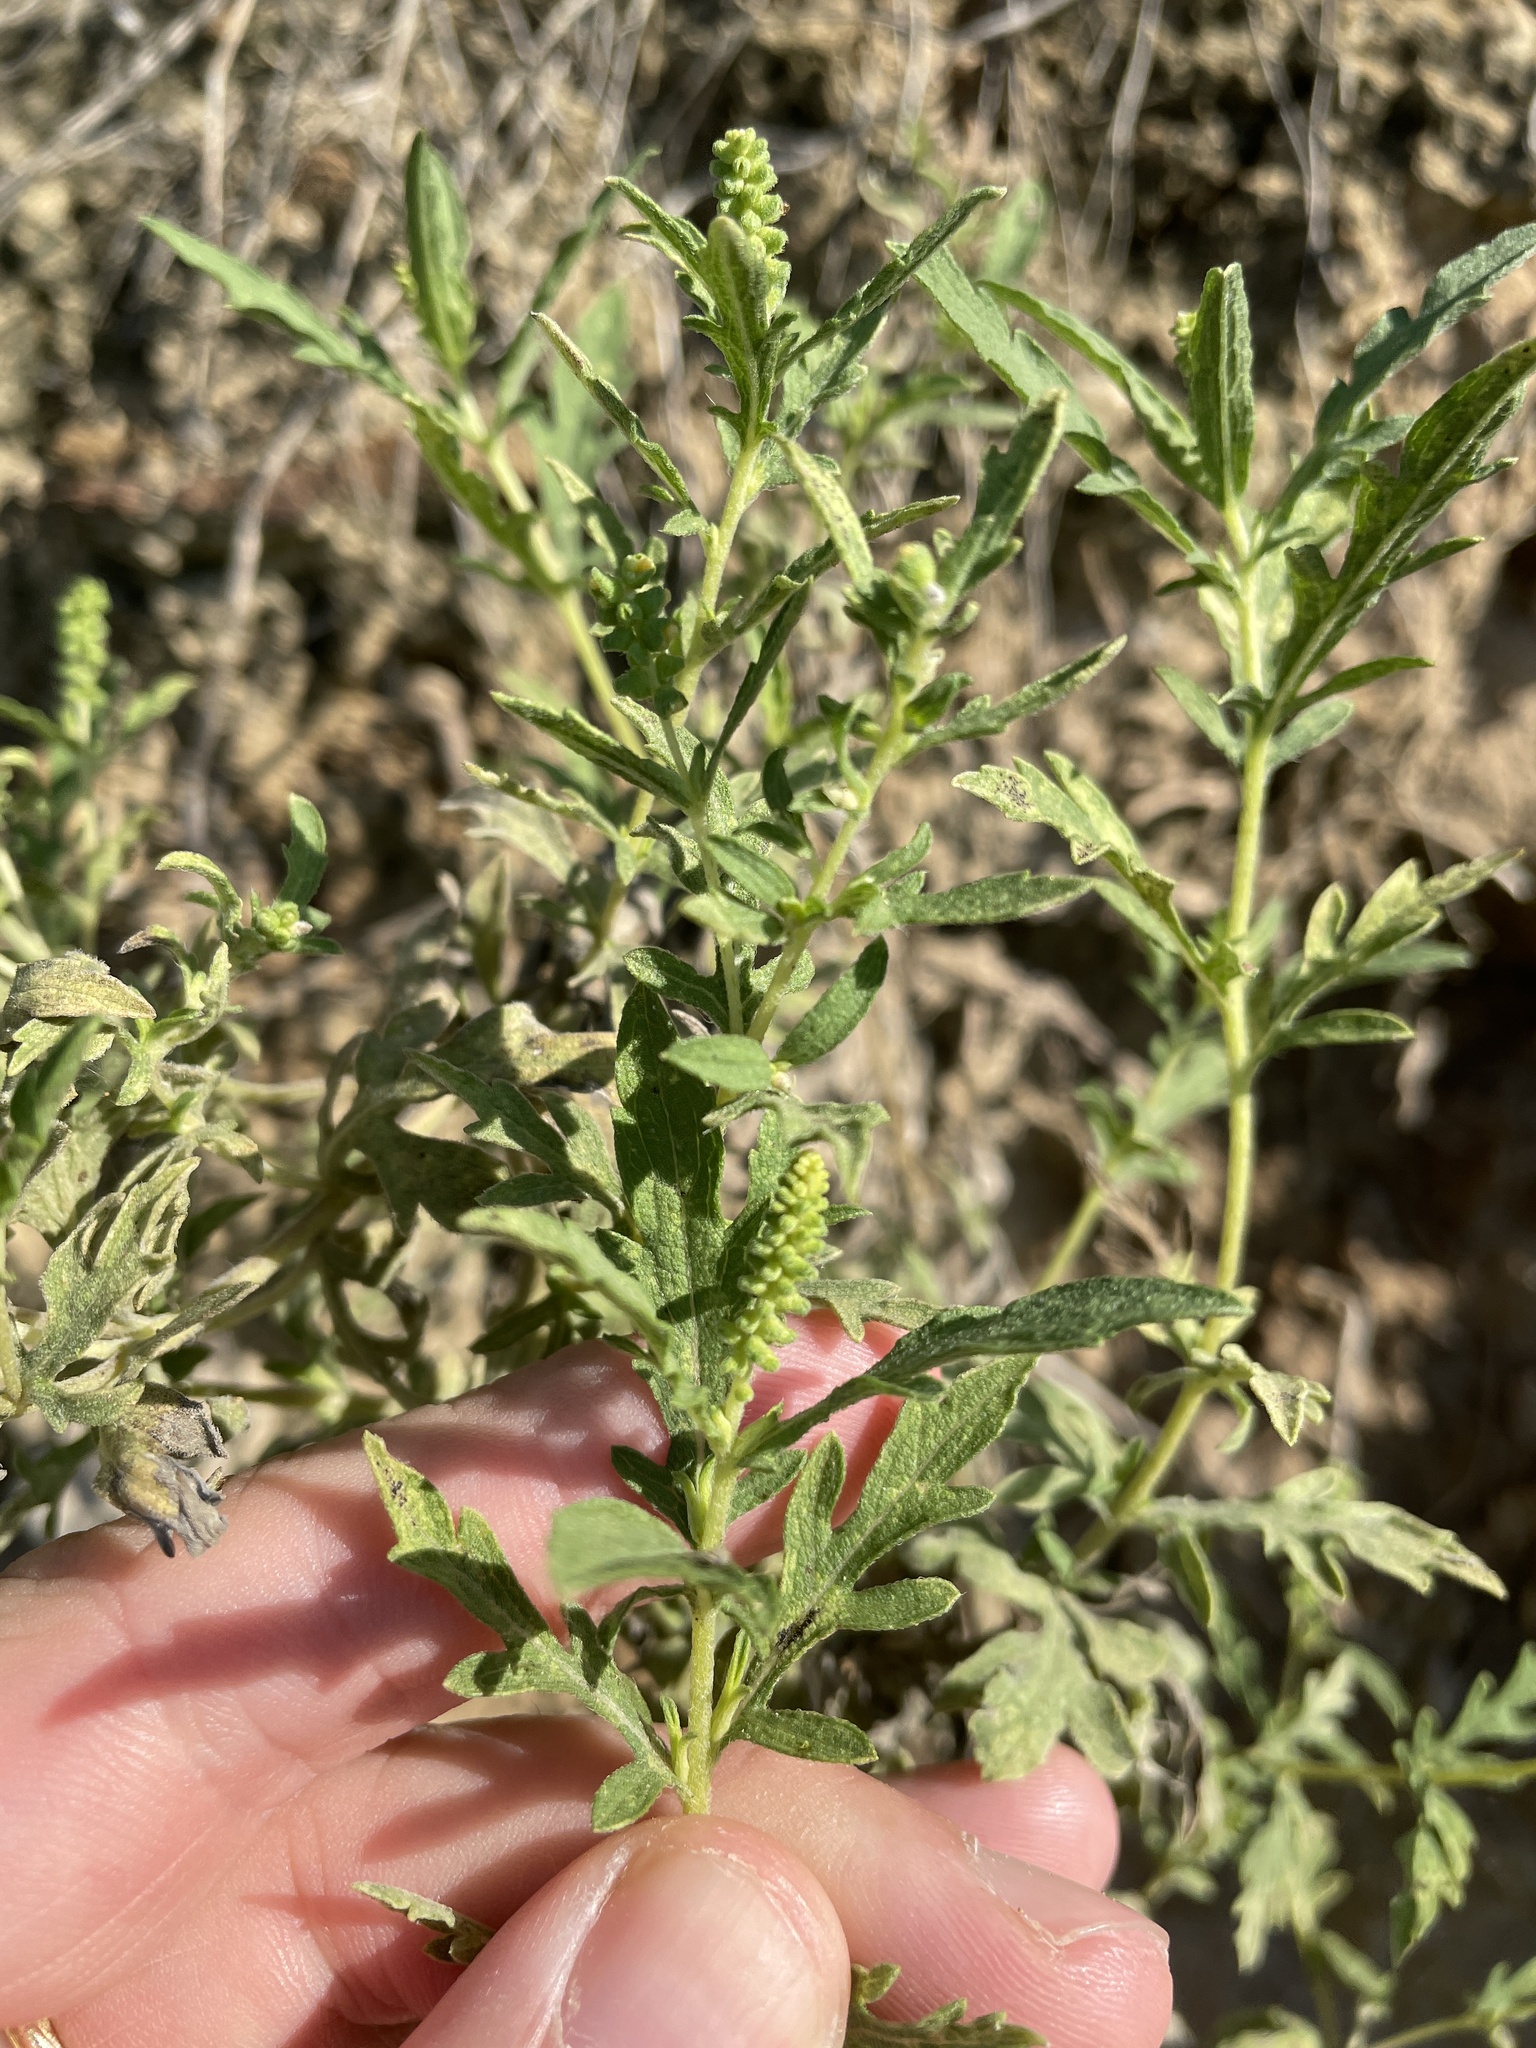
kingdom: Plantae
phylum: Tracheophyta
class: Magnoliopsida
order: Asterales
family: Asteraceae
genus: Ambrosia
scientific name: Ambrosia psilostachya
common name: Perennial ragweed
